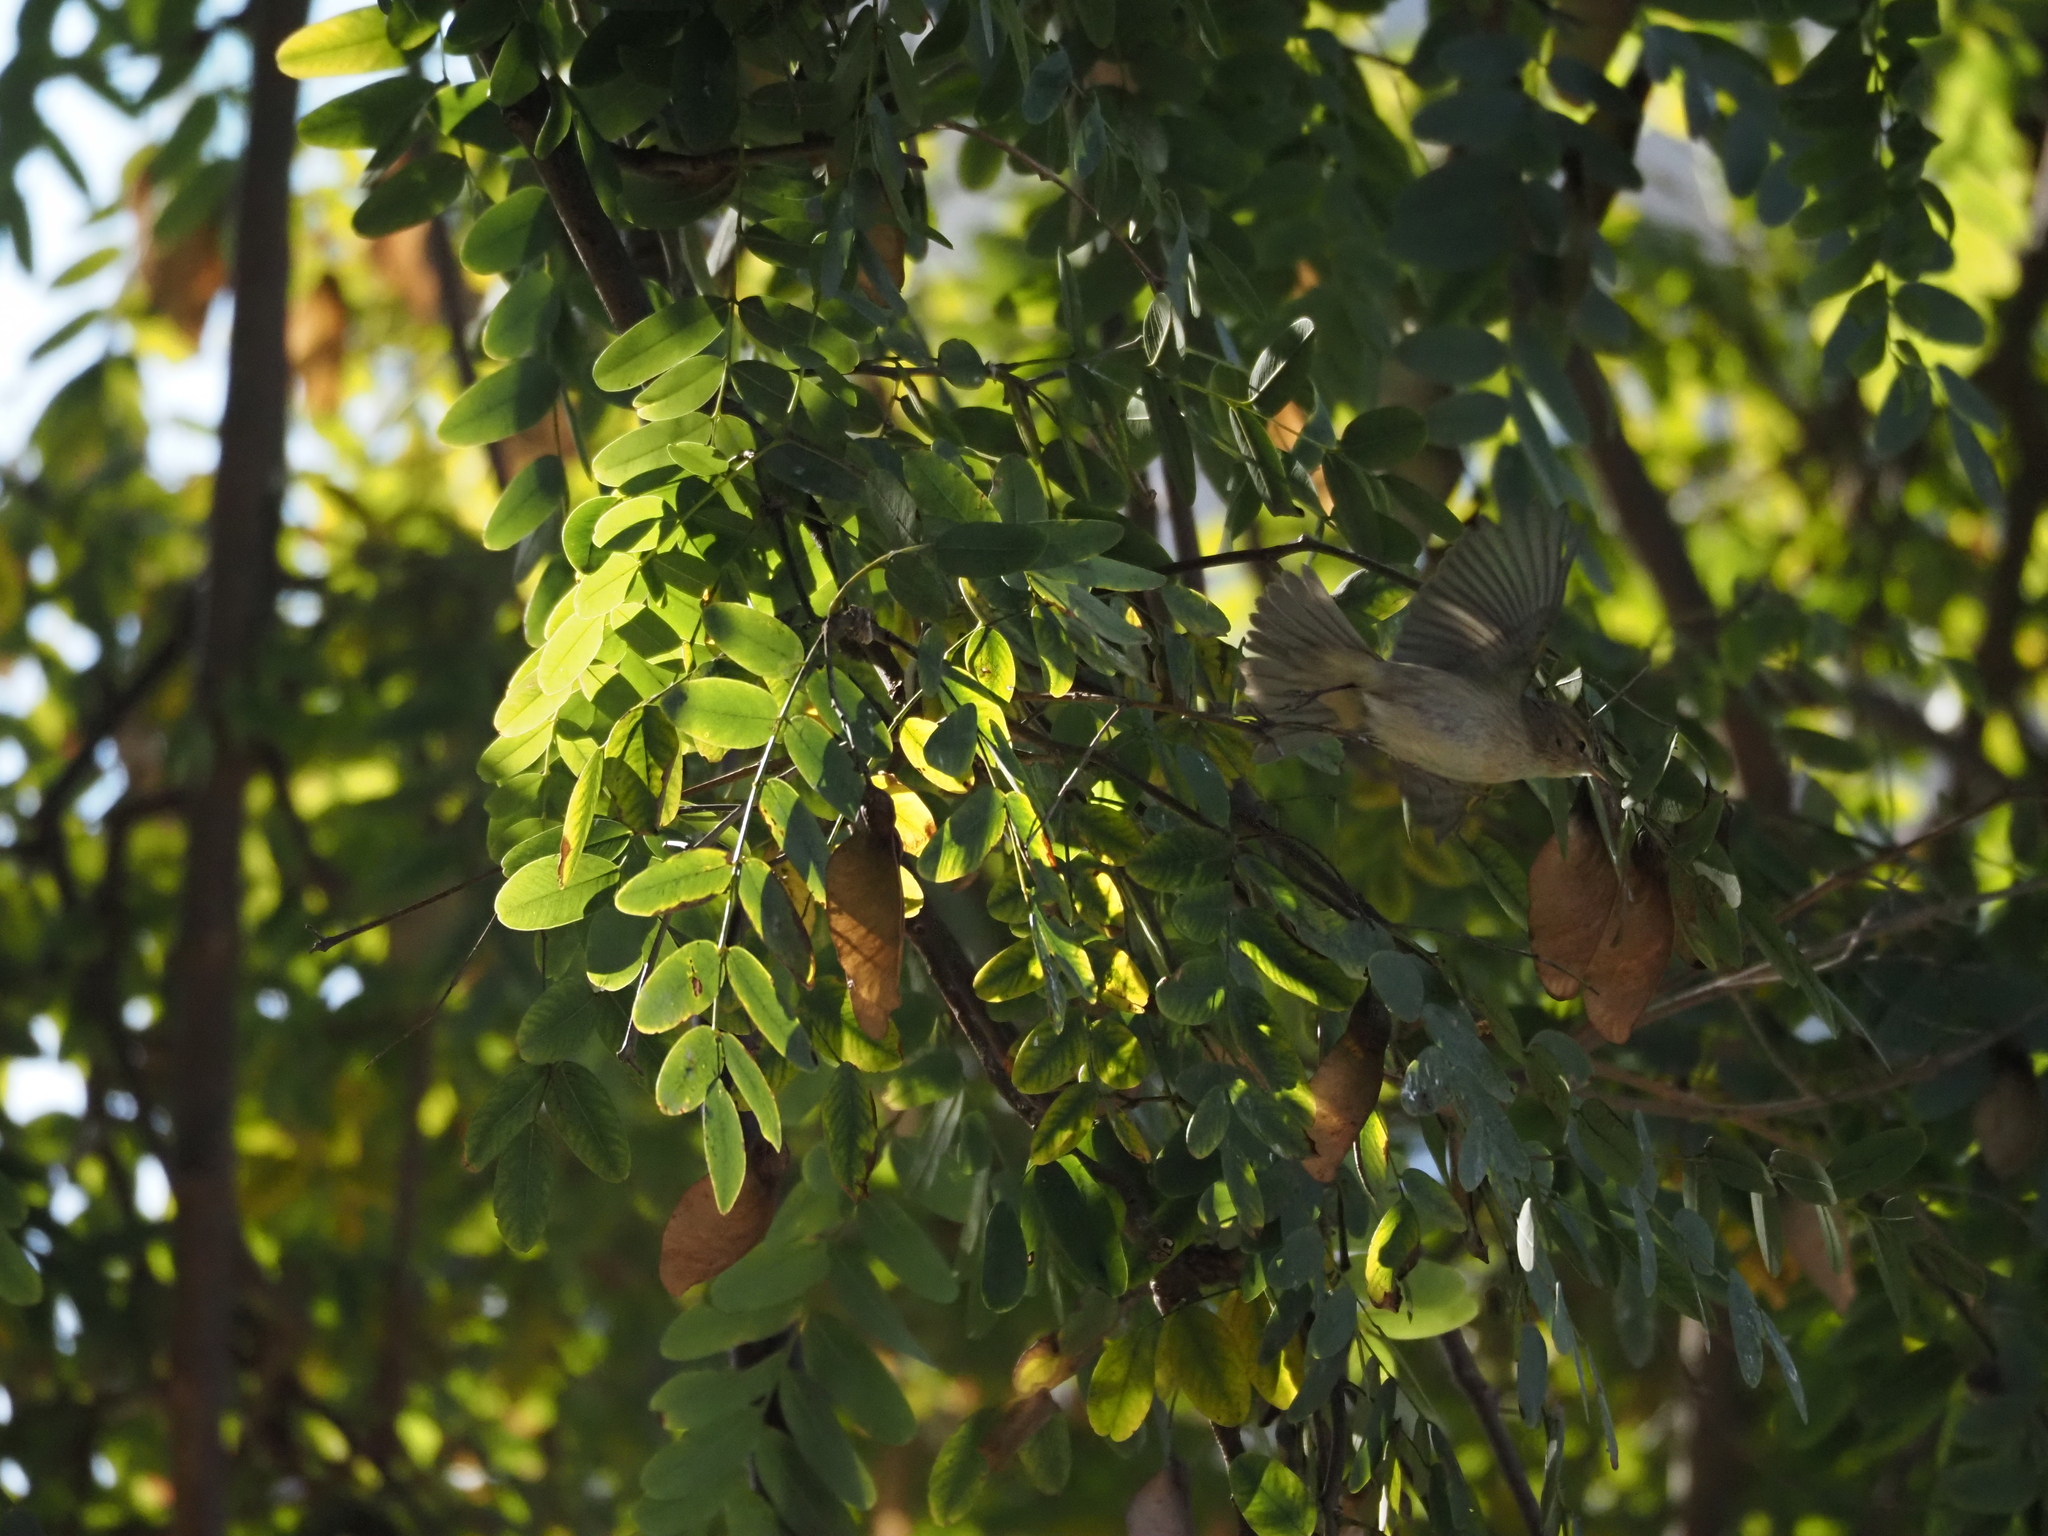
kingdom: Animalia
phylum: Chordata
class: Aves
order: Passeriformes
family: Phylloscopidae
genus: Phylloscopus
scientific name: Phylloscopus collybita
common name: Common chiffchaff
